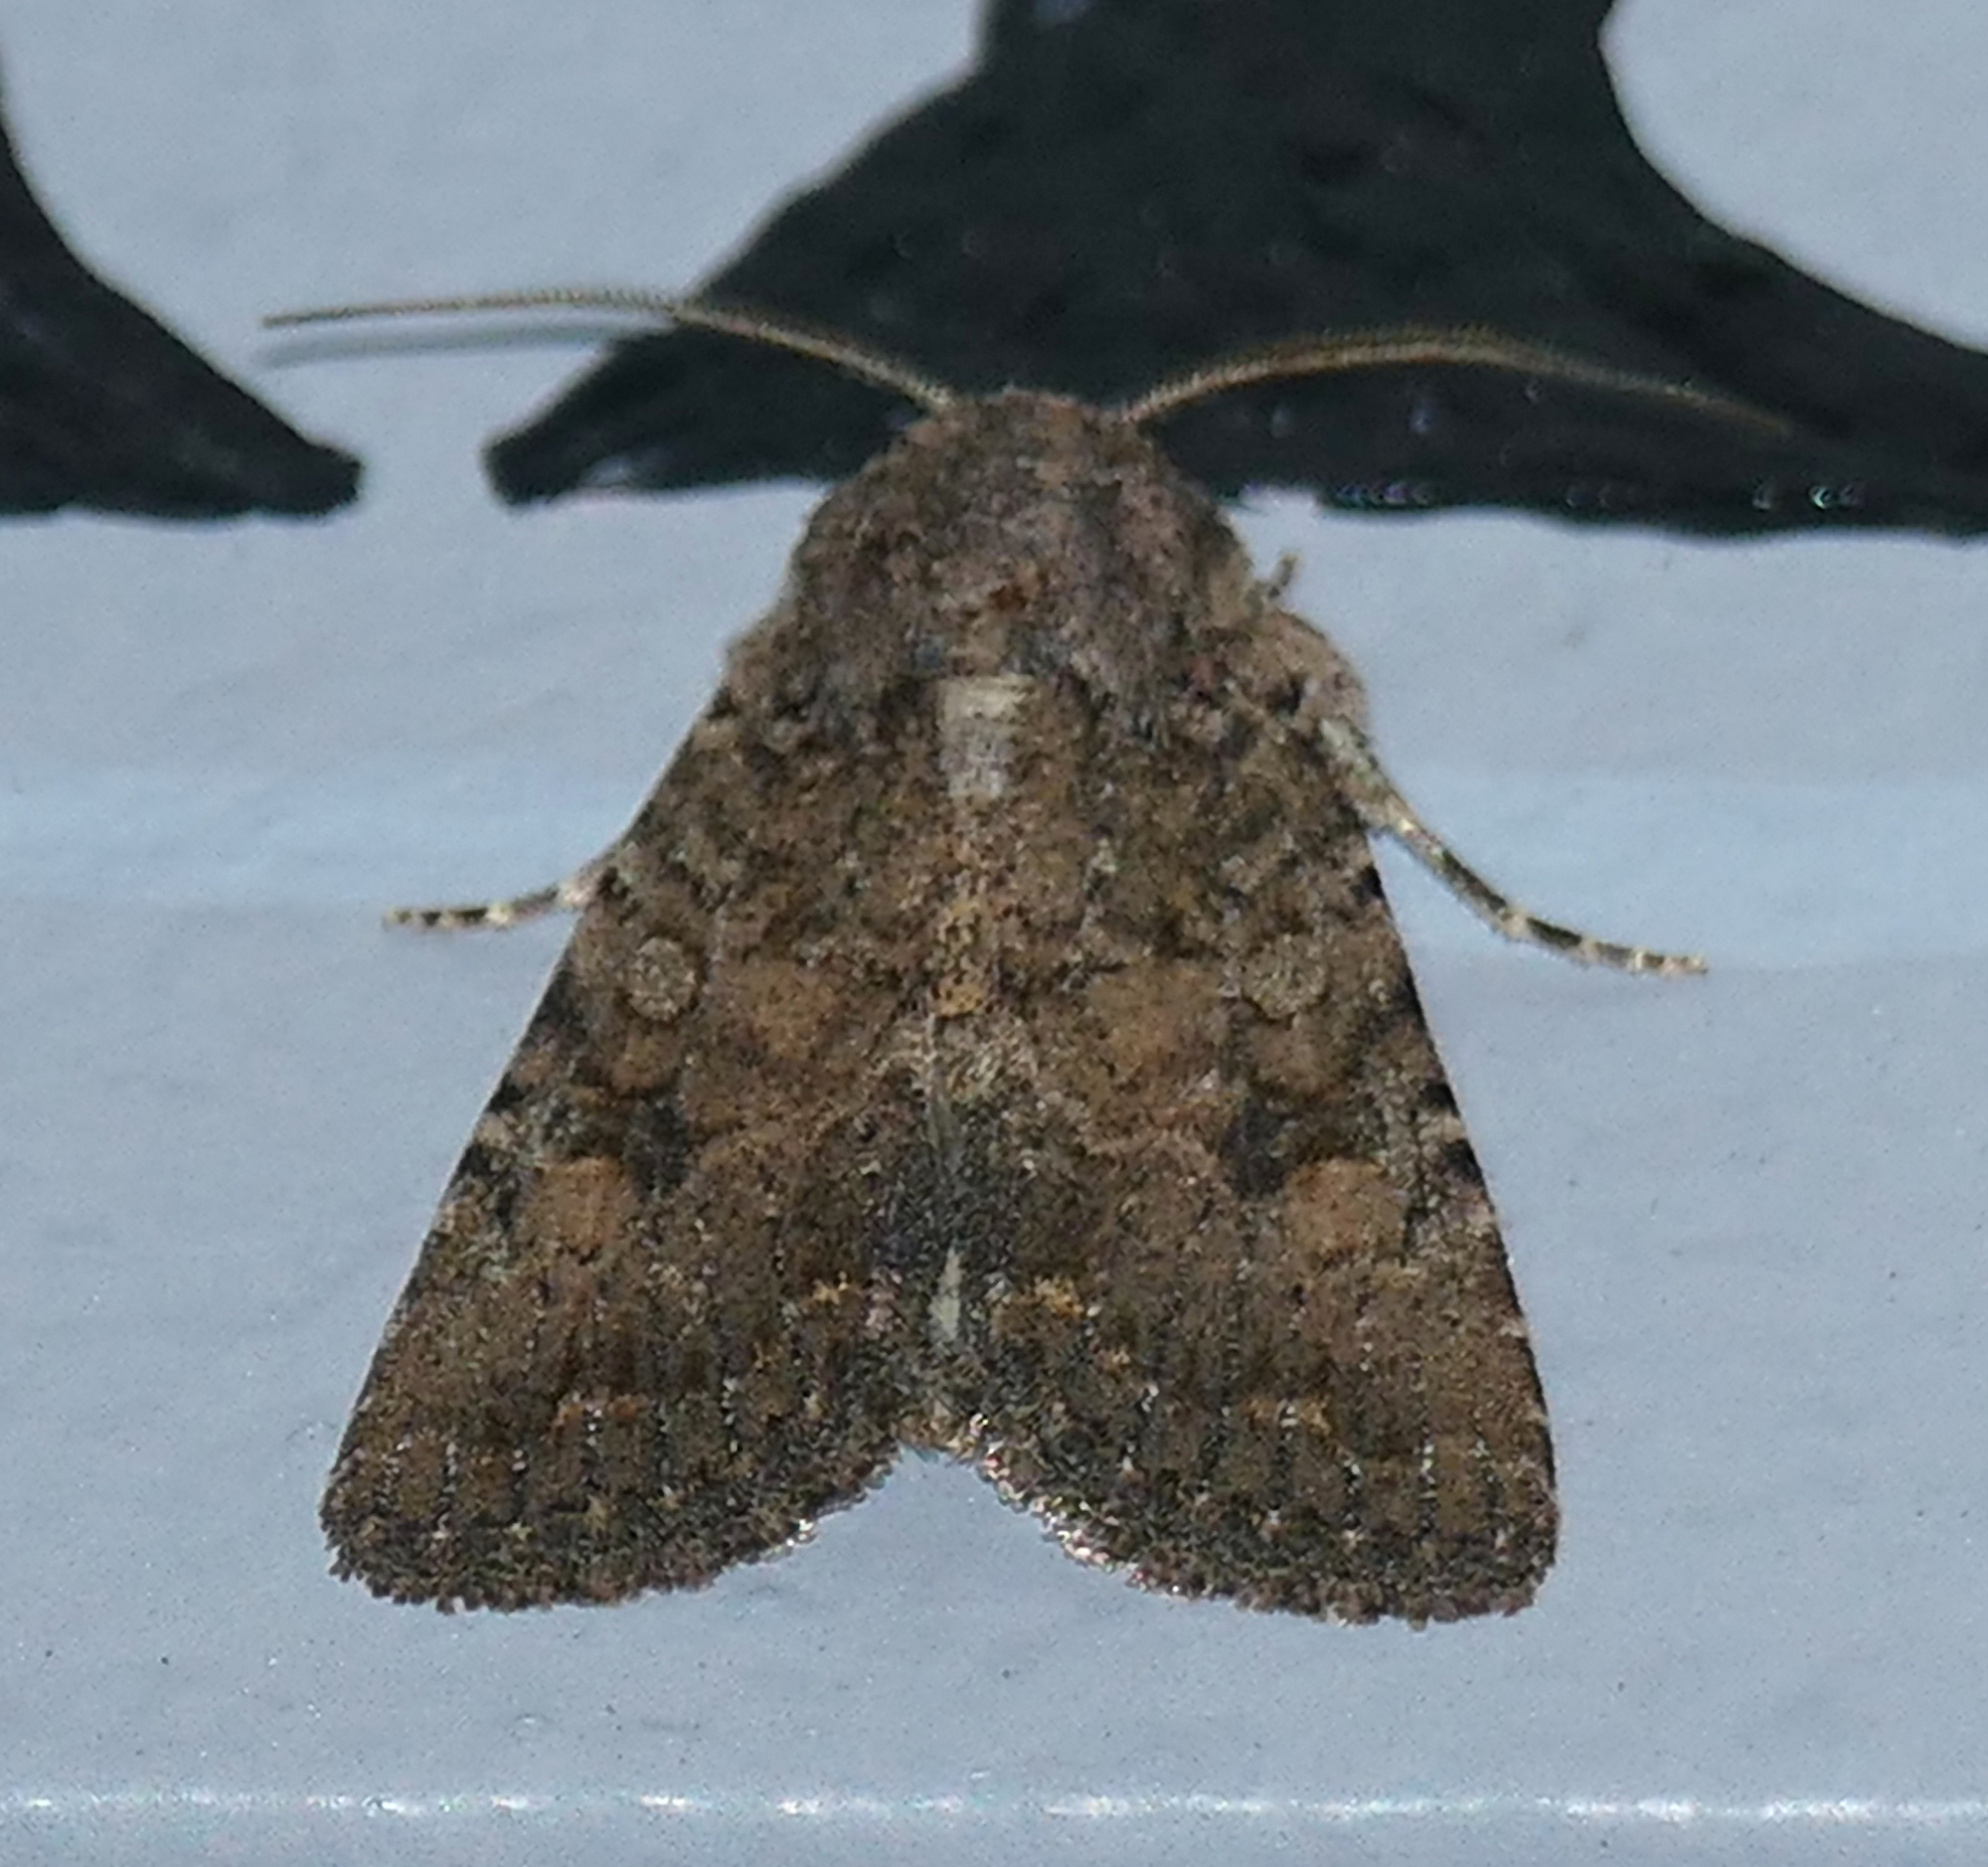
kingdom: Animalia
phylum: Arthropoda
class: Insecta
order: Lepidoptera
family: Noctuidae
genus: Trichopolia
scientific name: Trichopolia
